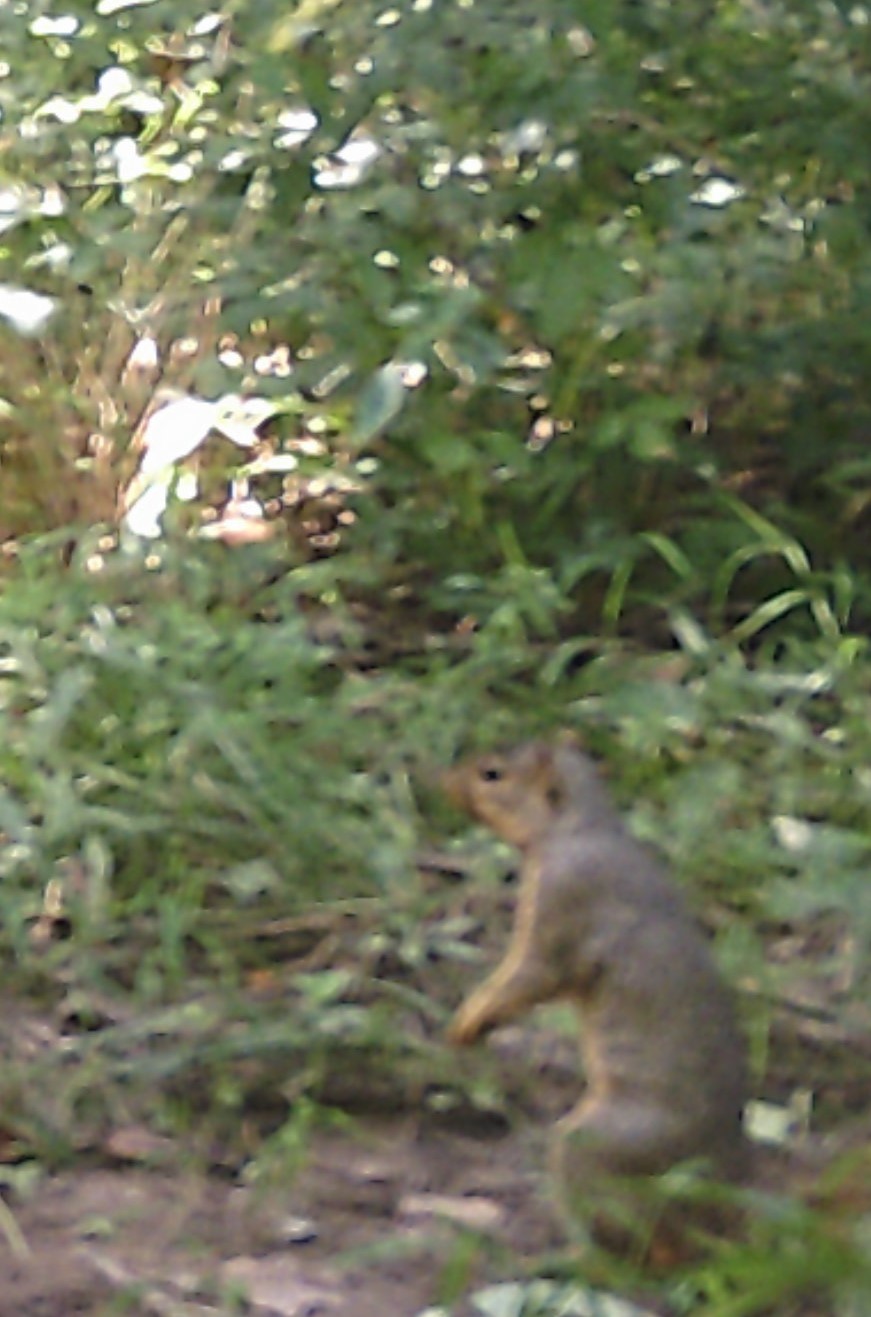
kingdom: Animalia
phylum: Chordata
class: Mammalia
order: Rodentia
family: Sciuridae
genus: Sciurus
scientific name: Sciurus niger
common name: Fox squirrel
